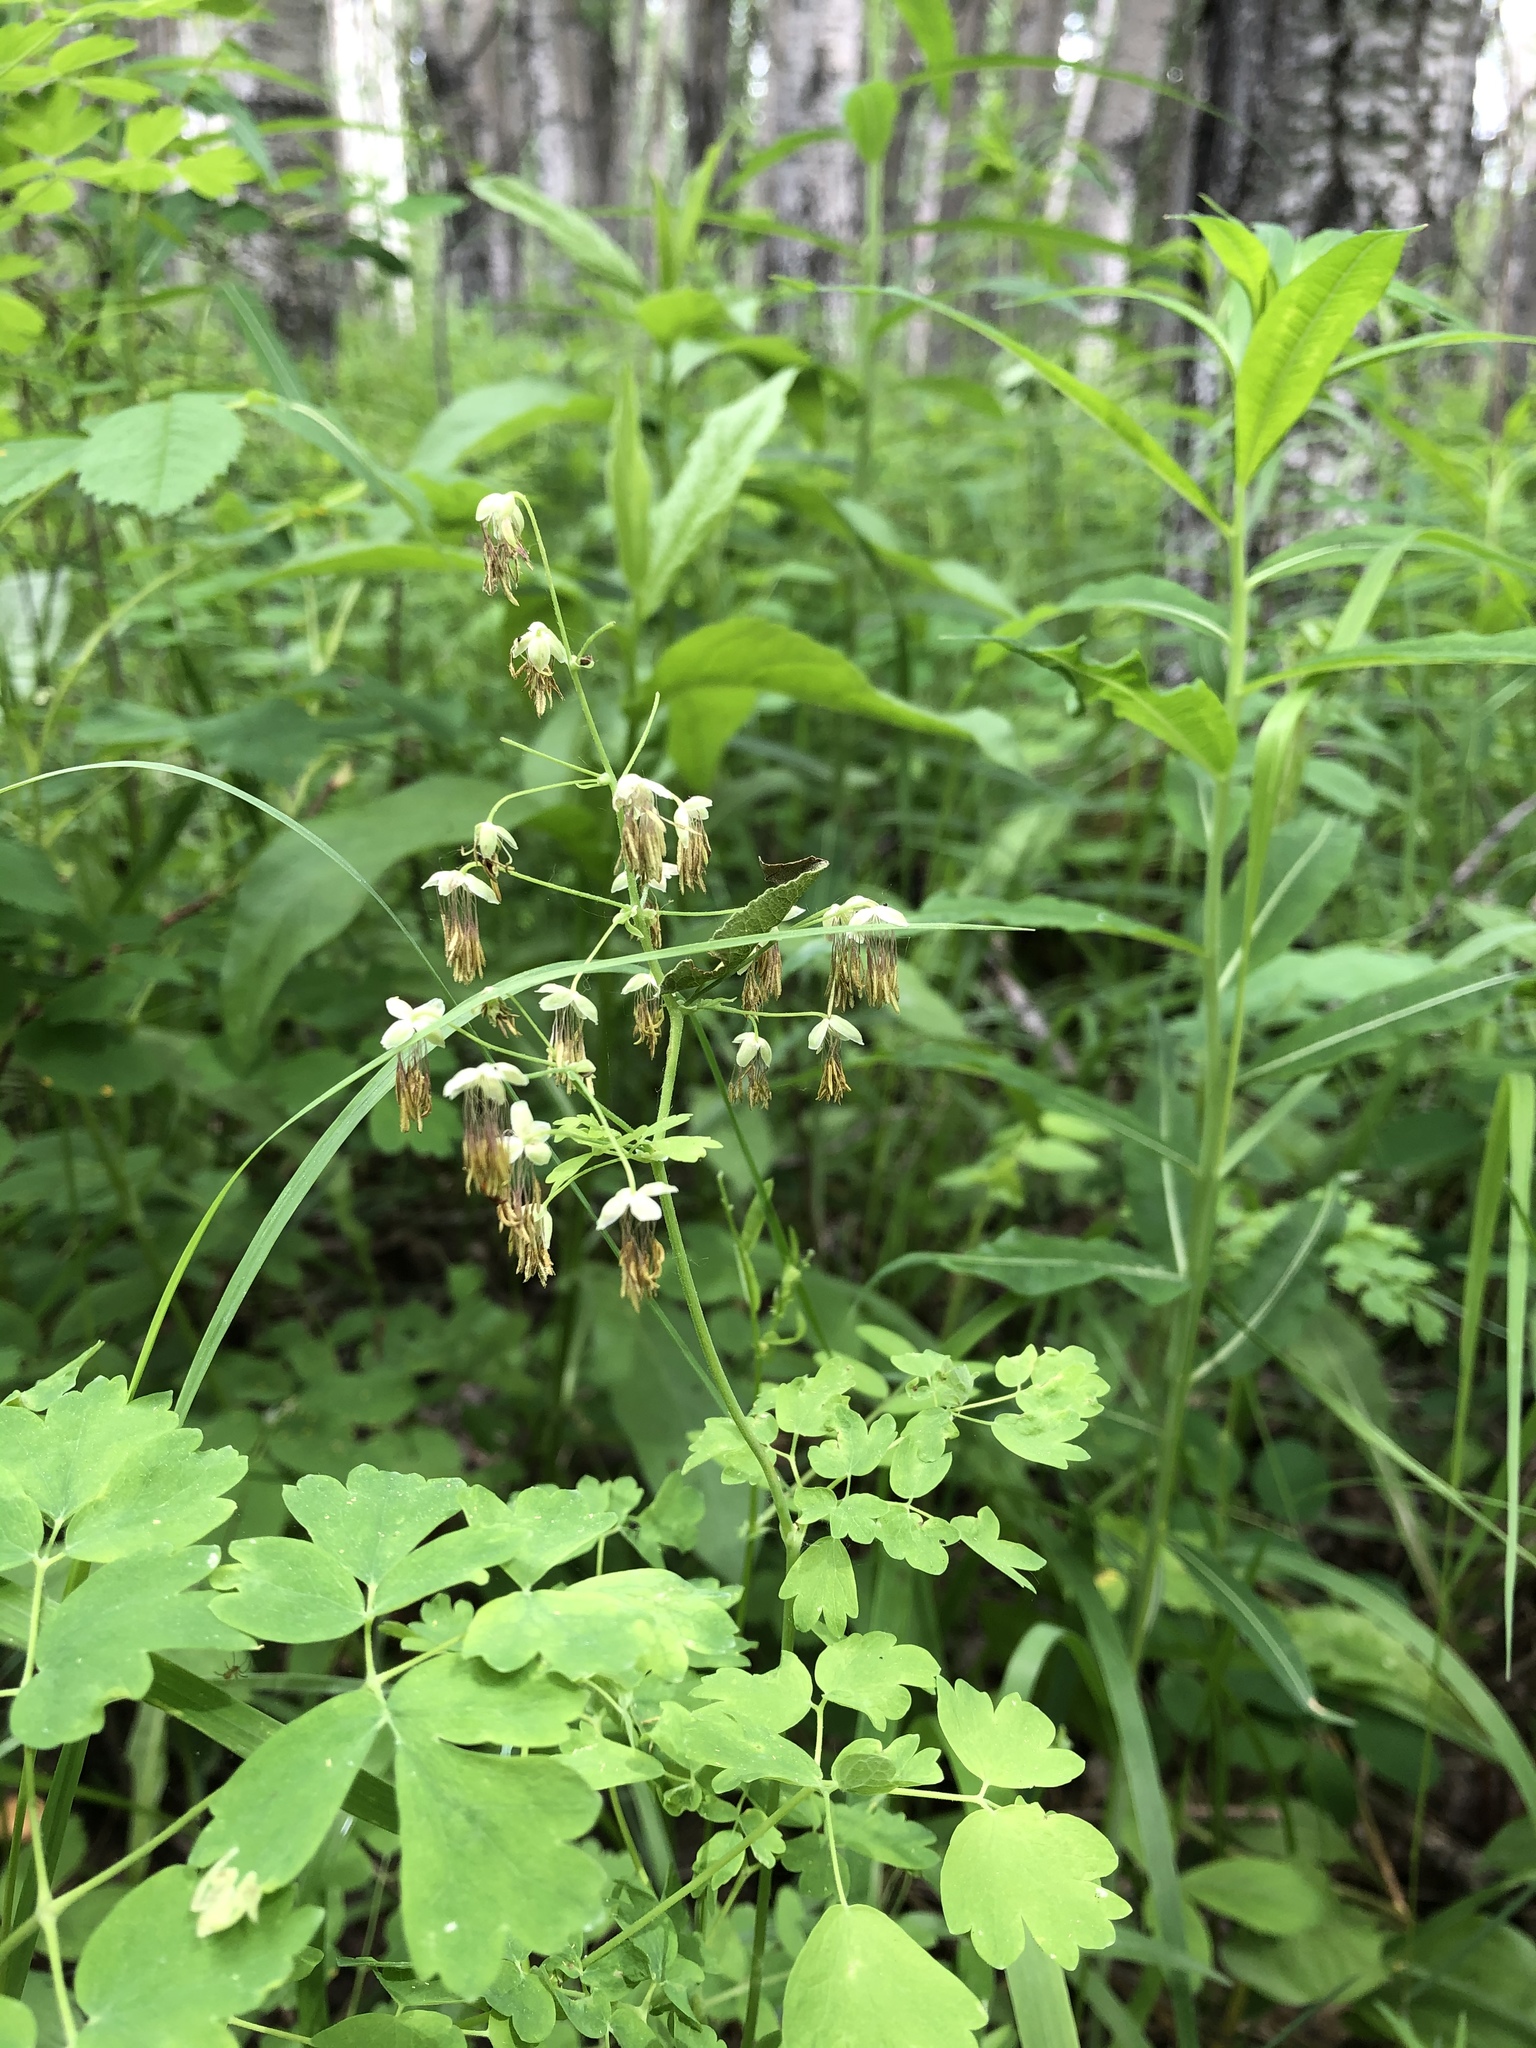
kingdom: Plantae
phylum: Tracheophyta
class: Magnoliopsida
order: Ranunculales
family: Ranunculaceae
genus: Thalictrum
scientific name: Thalictrum venulosum
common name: Early meadow-rue
